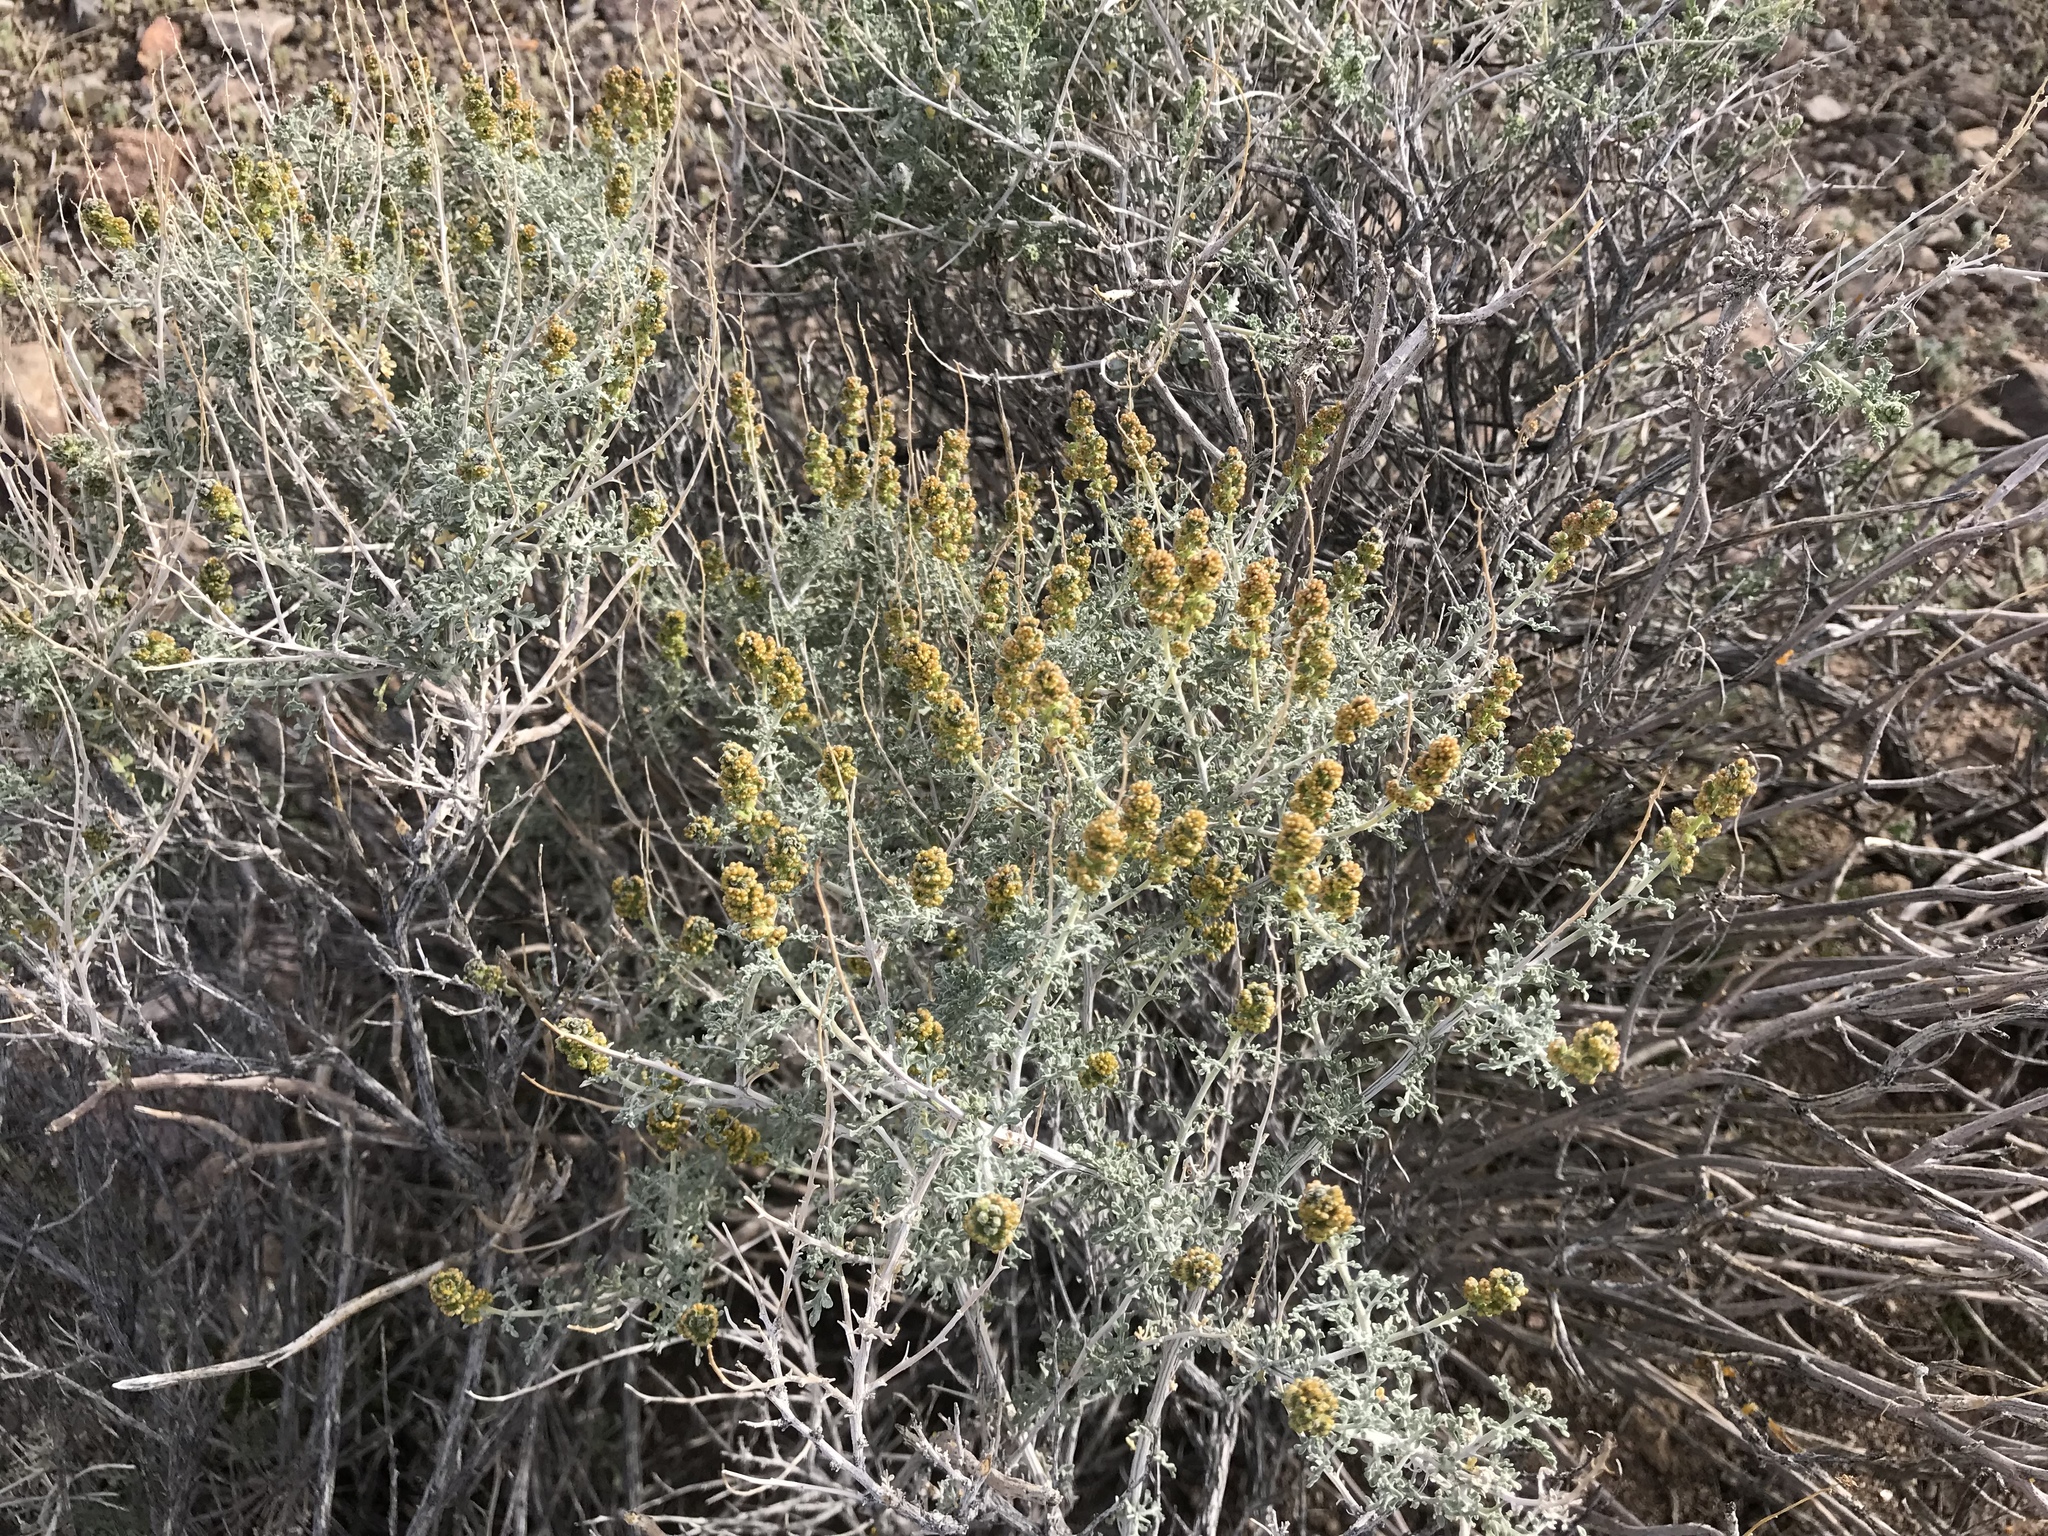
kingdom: Plantae
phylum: Tracheophyta
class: Magnoliopsida
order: Asterales
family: Asteraceae
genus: Ambrosia
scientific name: Ambrosia dumosa
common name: Bur-sage
